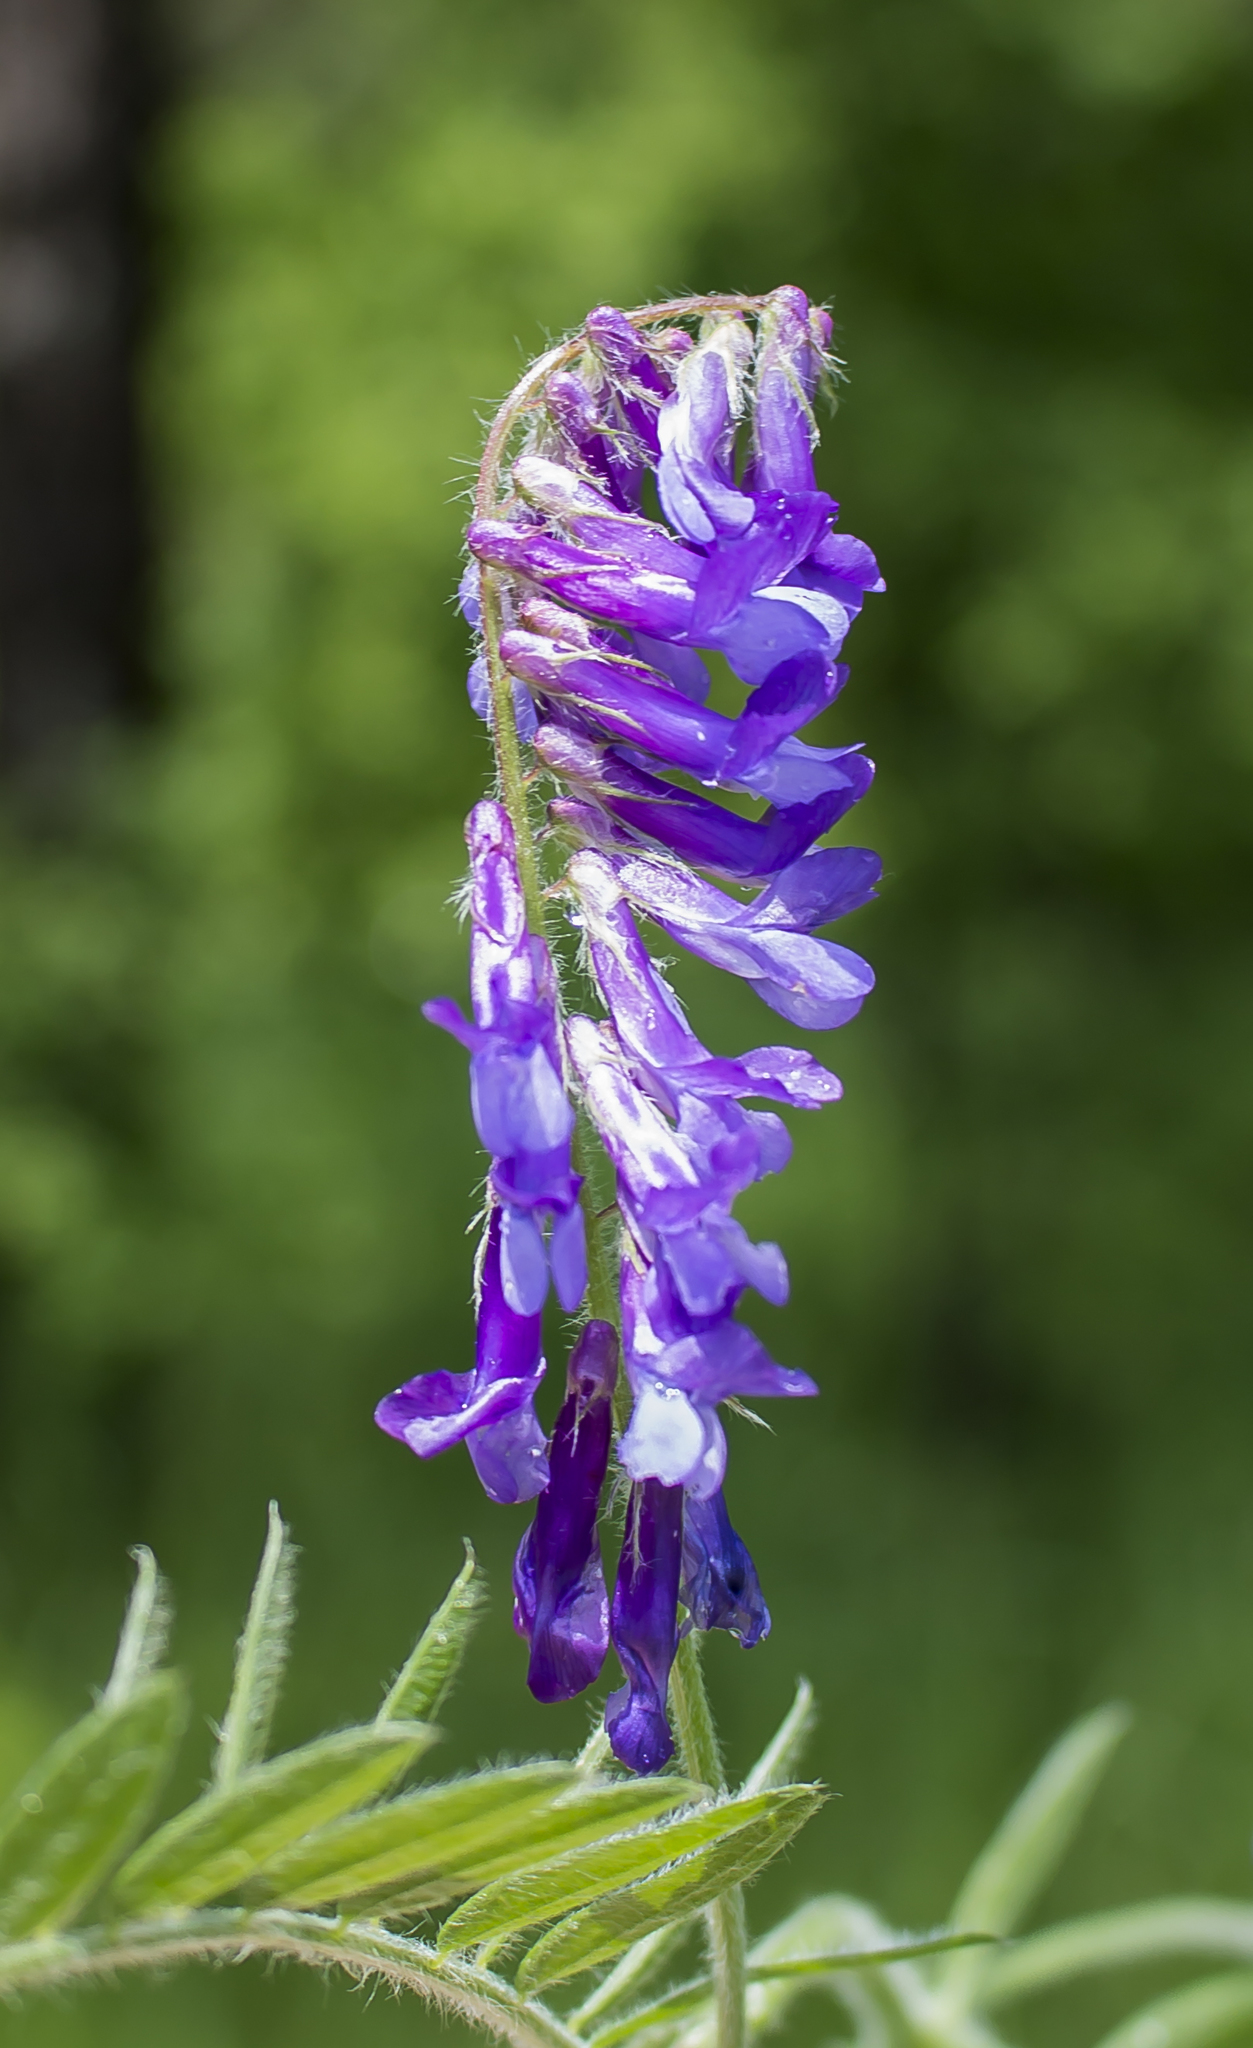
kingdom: Plantae
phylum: Tracheophyta
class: Magnoliopsida
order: Fabales
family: Fabaceae
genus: Vicia
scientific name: Vicia villosa
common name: Fodder vetch
